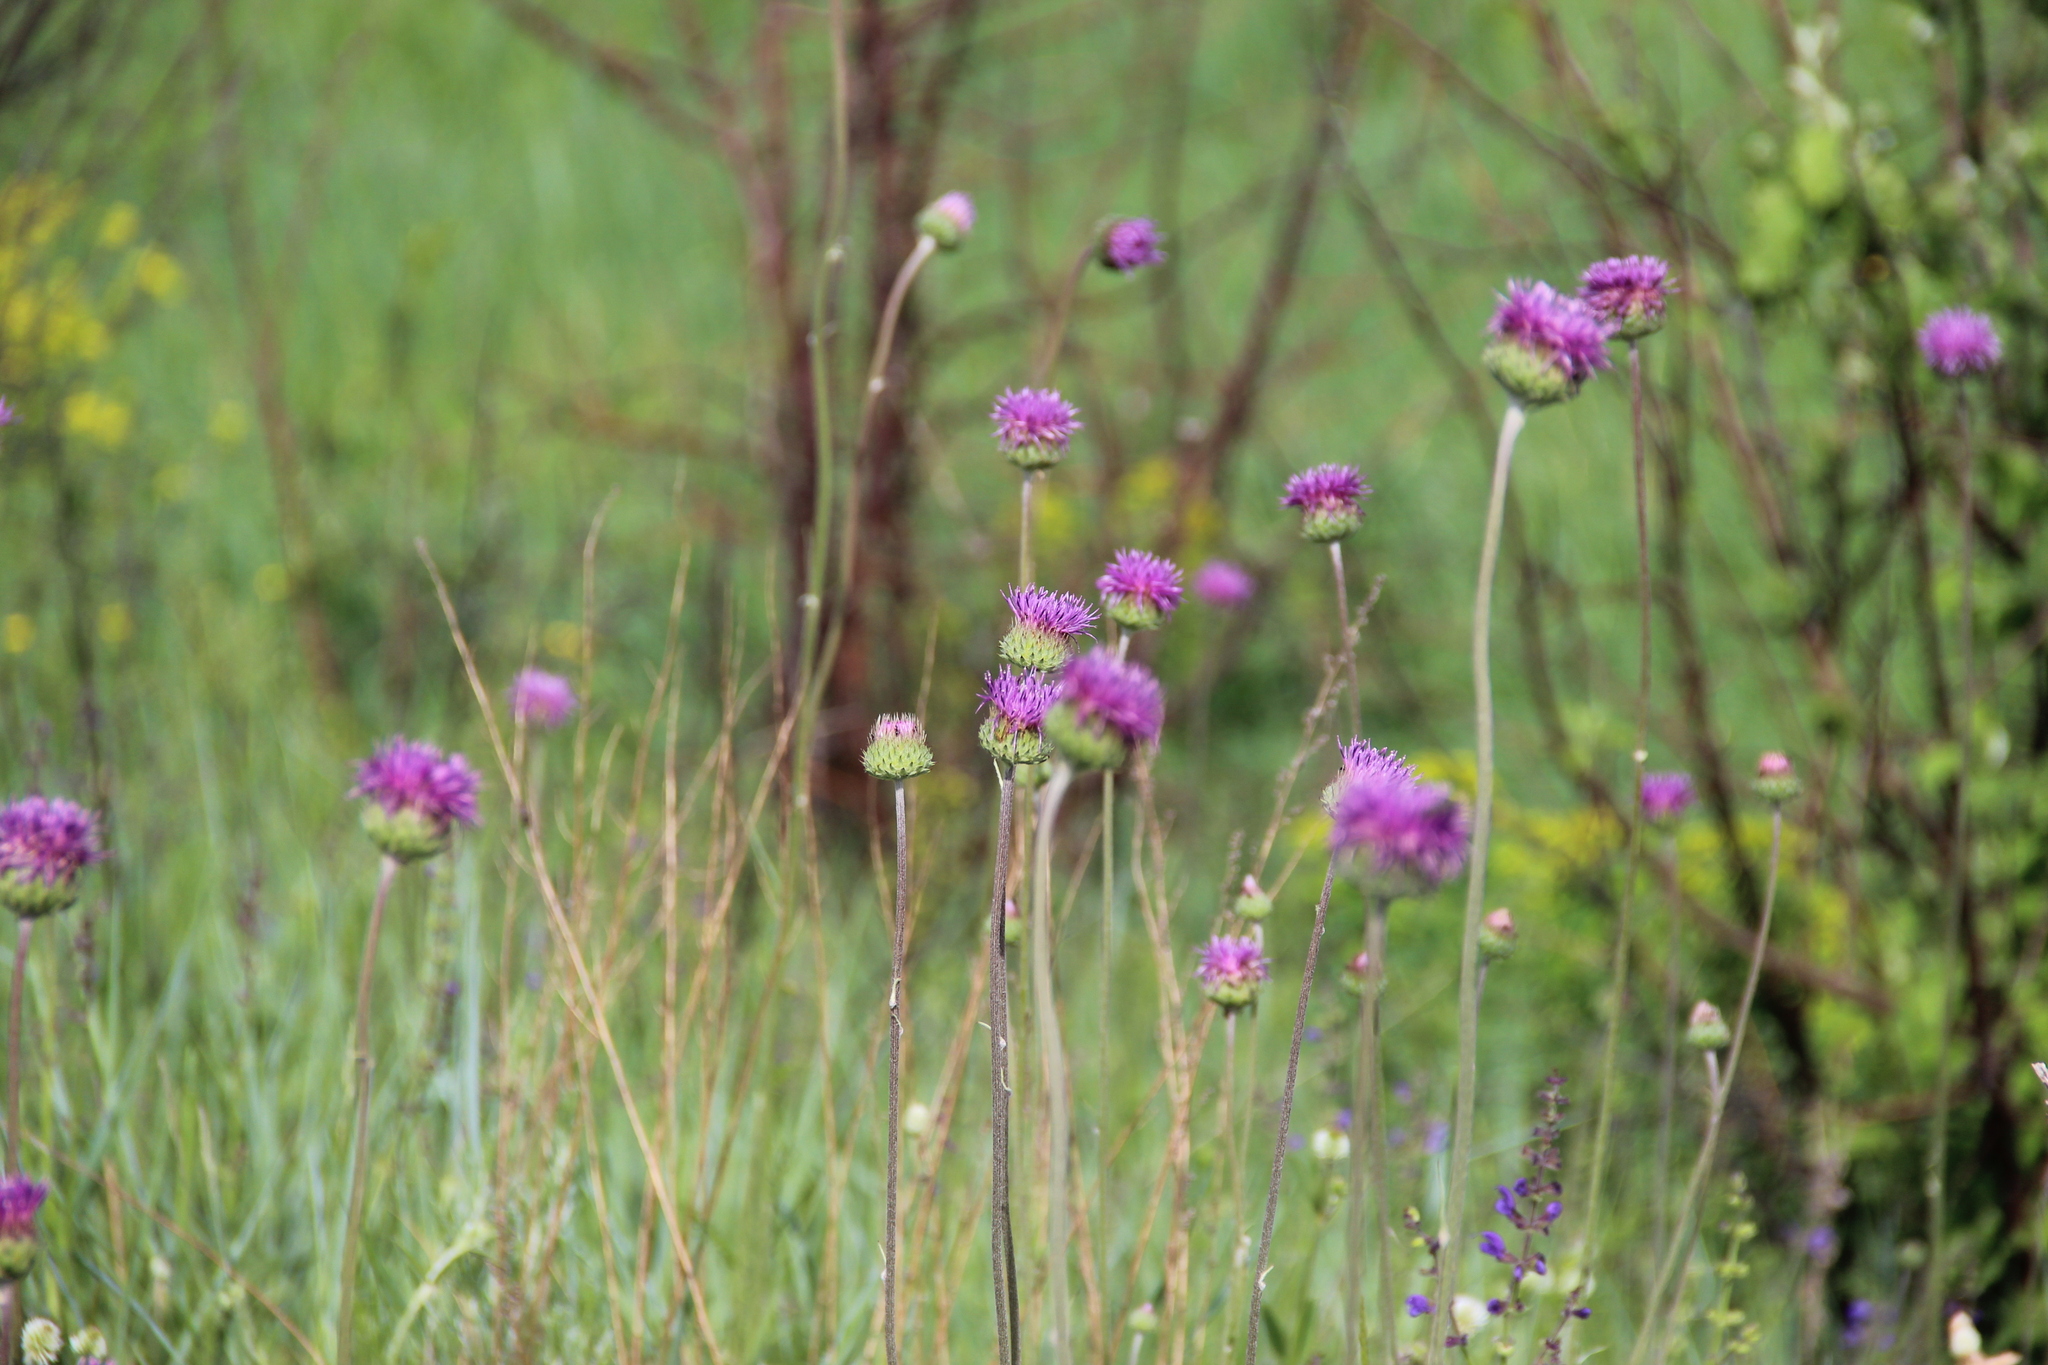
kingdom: Plantae
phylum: Tracheophyta
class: Magnoliopsida
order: Asterales
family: Asteraceae
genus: Jurinea
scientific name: Jurinea ledebourii
